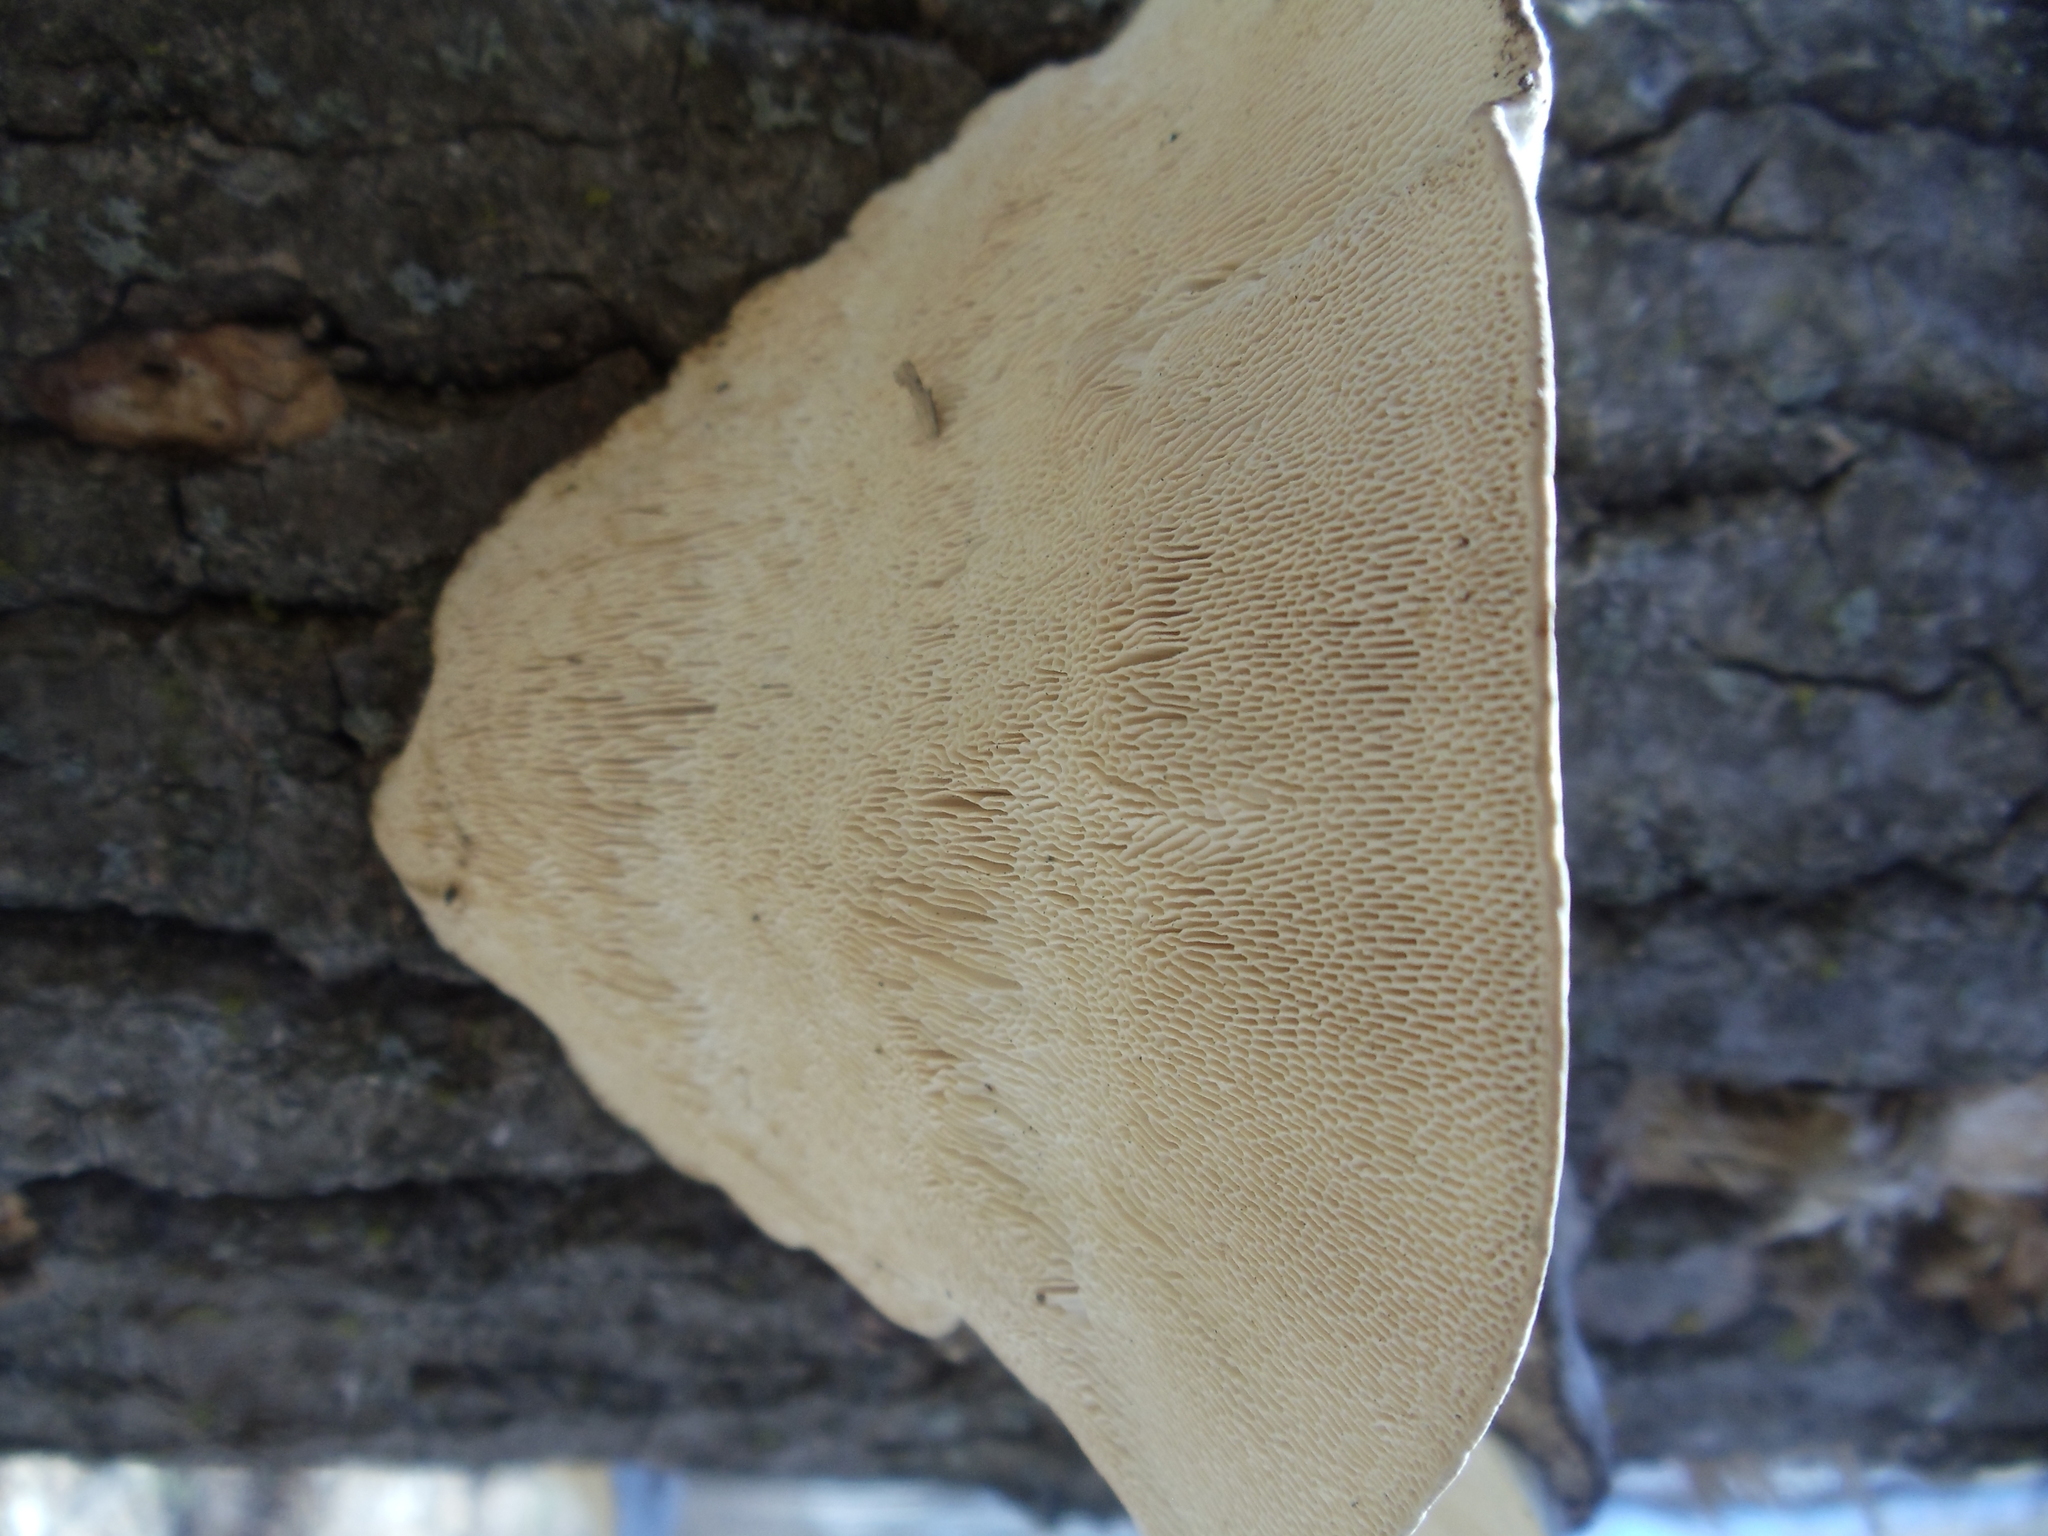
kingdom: Fungi
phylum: Basidiomycota
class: Agaricomycetes
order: Polyporales
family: Polyporaceae
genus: Trametes
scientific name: Trametes gibbosa
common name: Lumpy bracket
